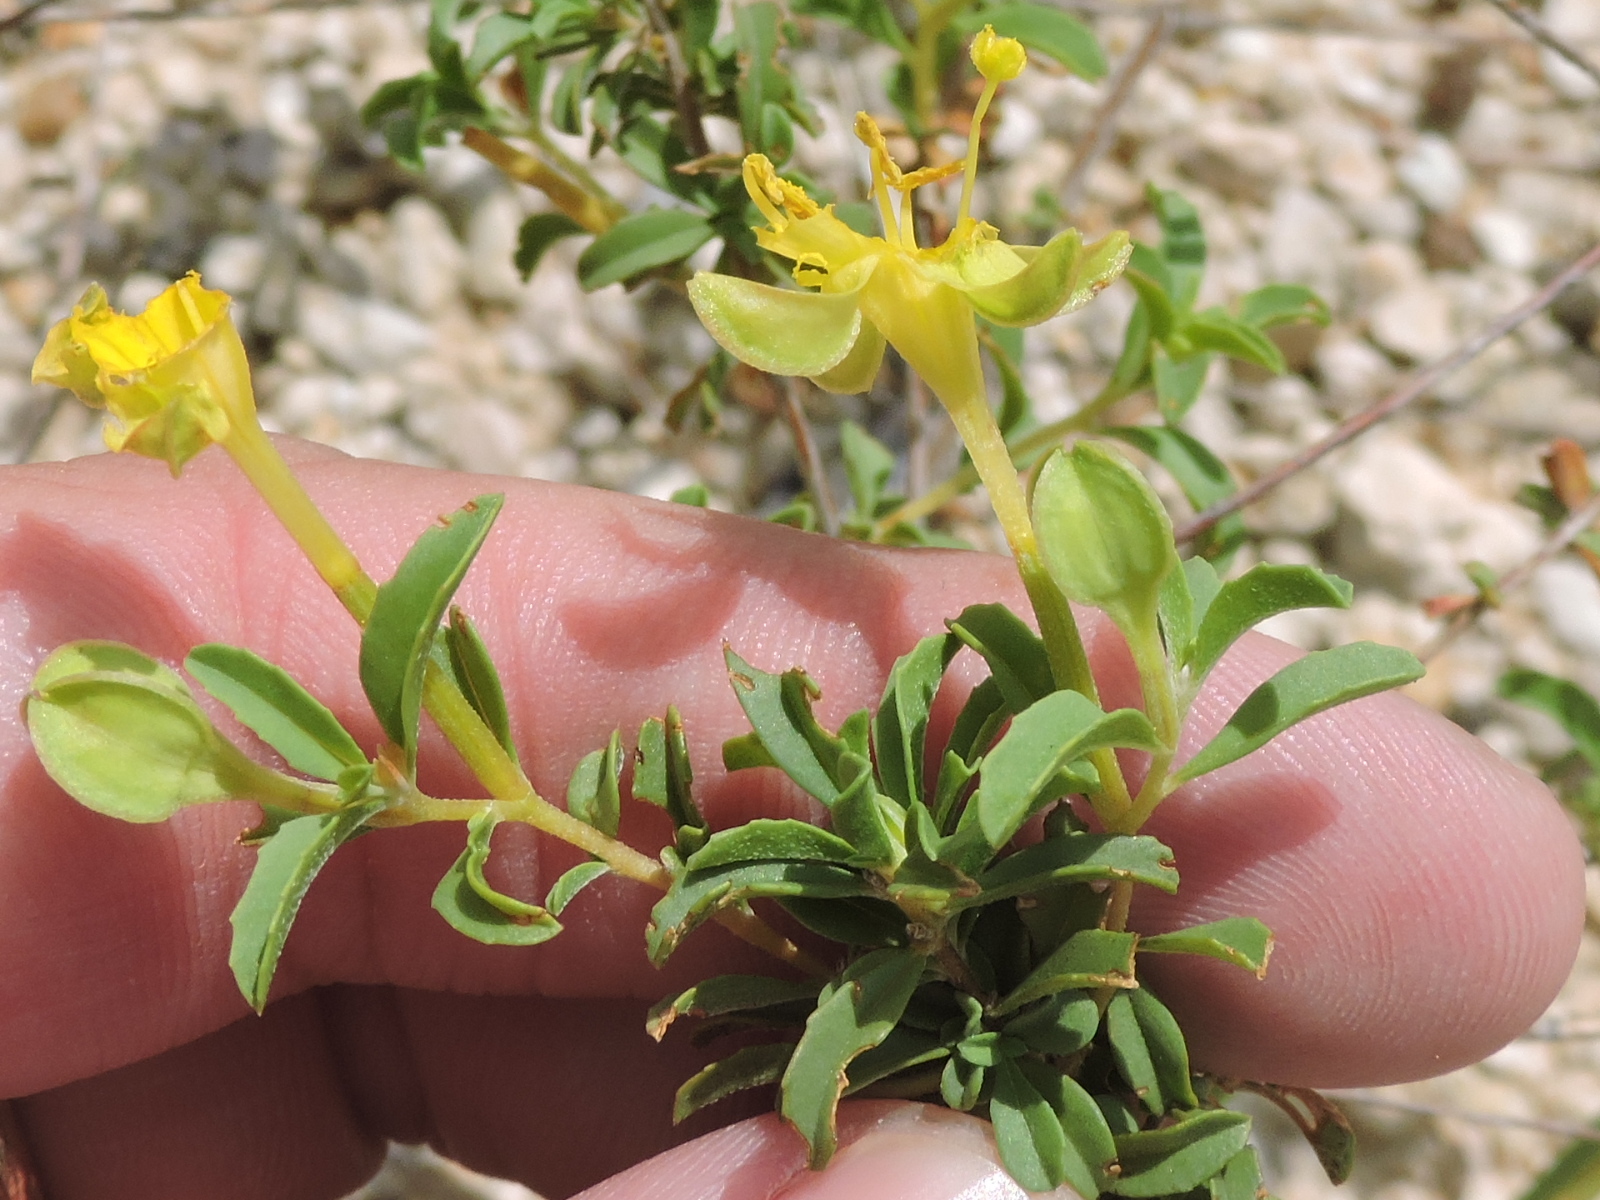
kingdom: Plantae
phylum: Tracheophyta
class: Magnoliopsida
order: Myrtales
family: Onagraceae
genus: Oenothera
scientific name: Oenothera
